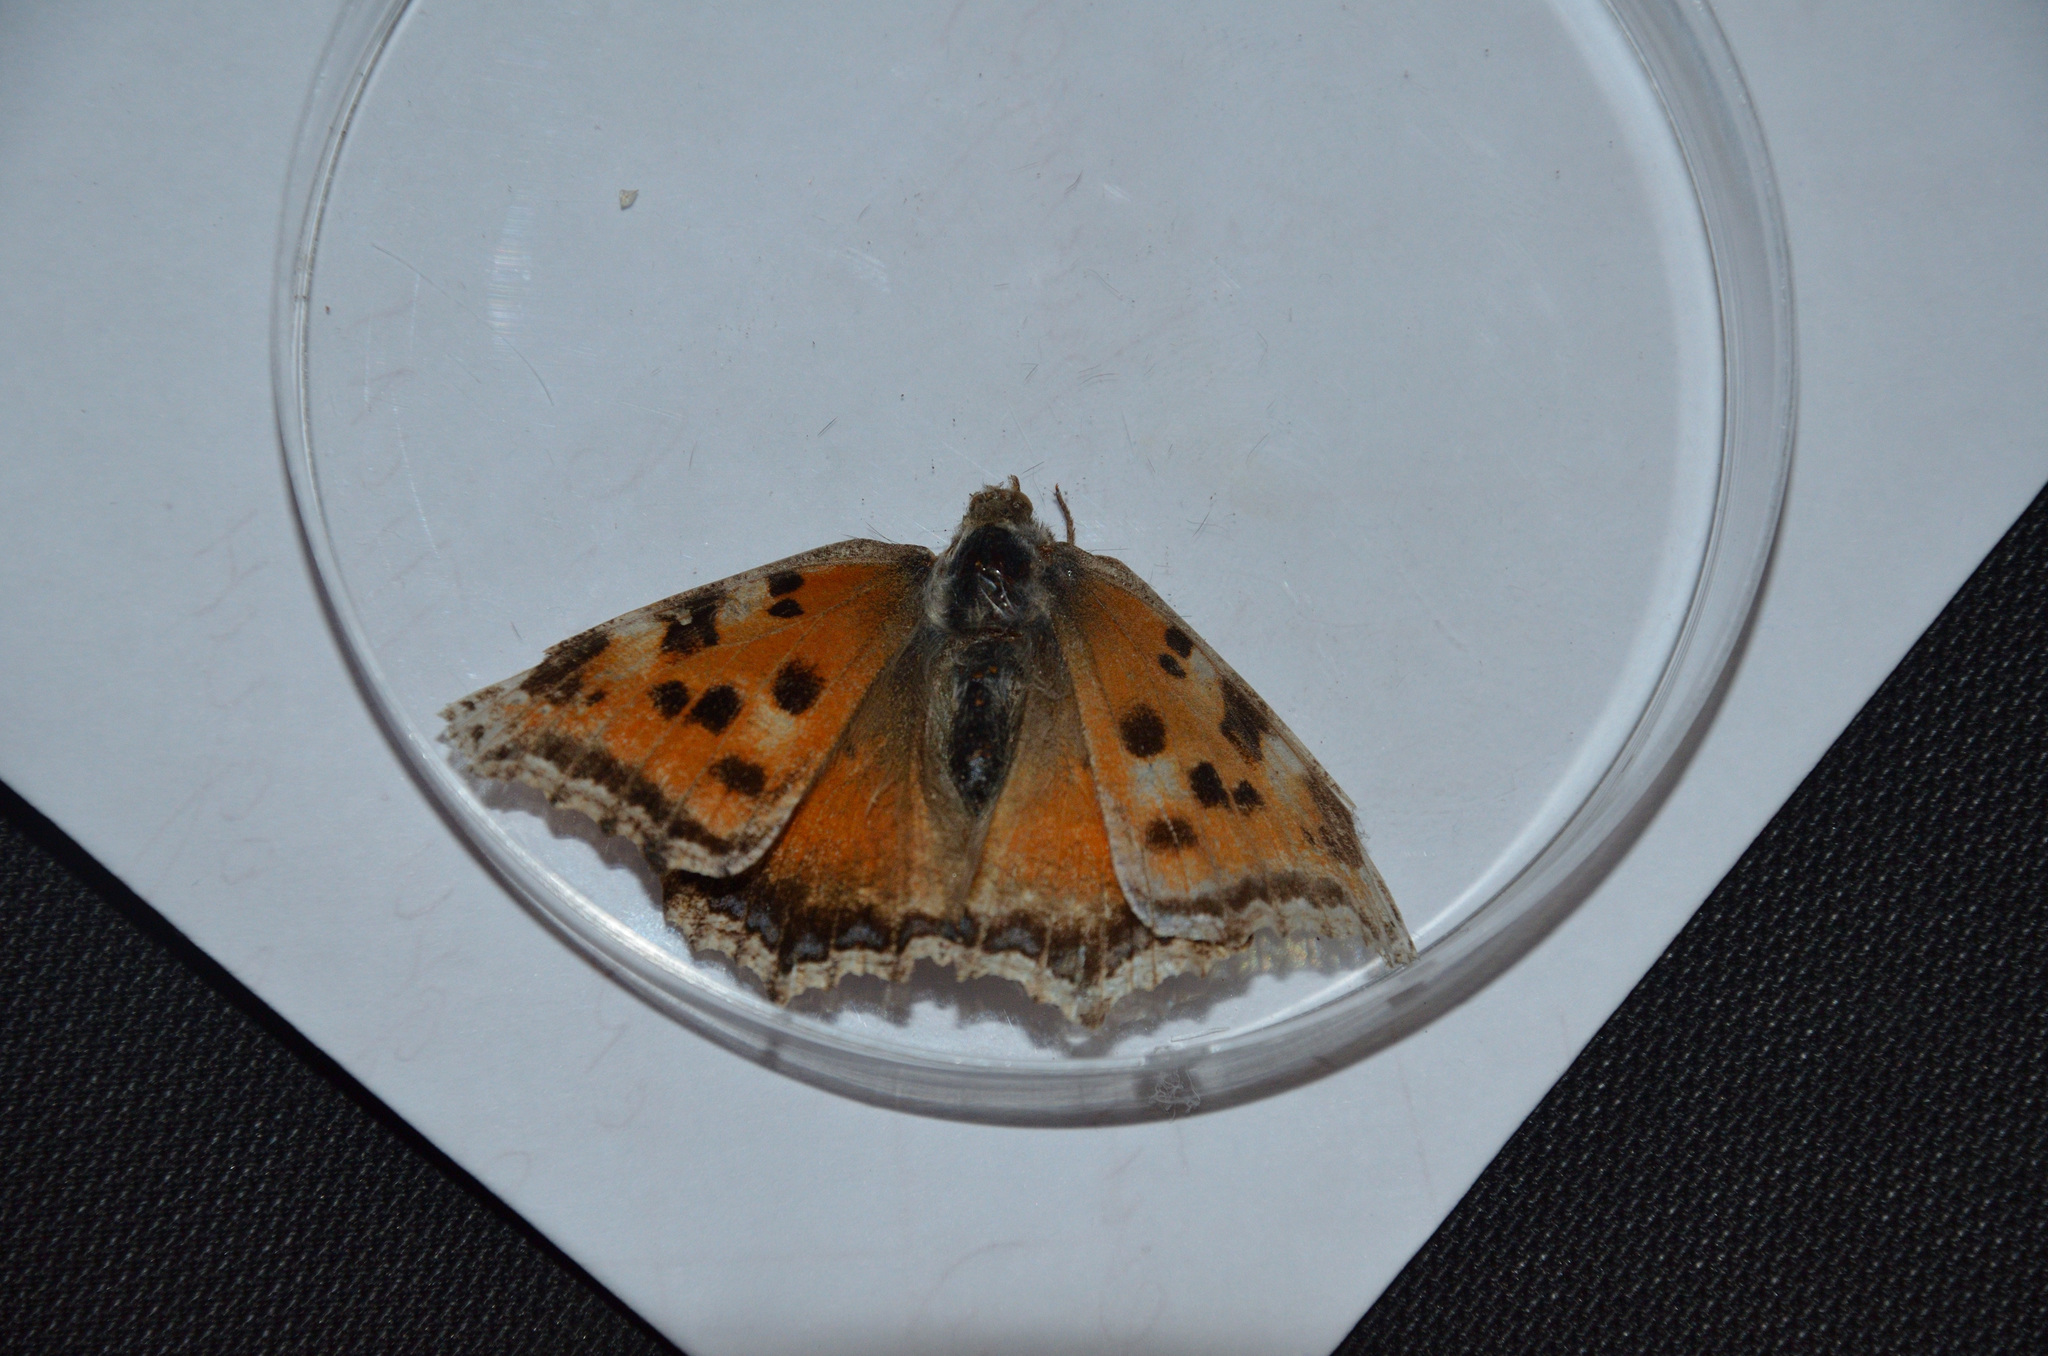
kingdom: Animalia
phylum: Arthropoda
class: Insecta
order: Lepidoptera
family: Nymphalidae
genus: Nymphalis
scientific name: Nymphalis xanthomelas
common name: Scarce tortoiseshell
